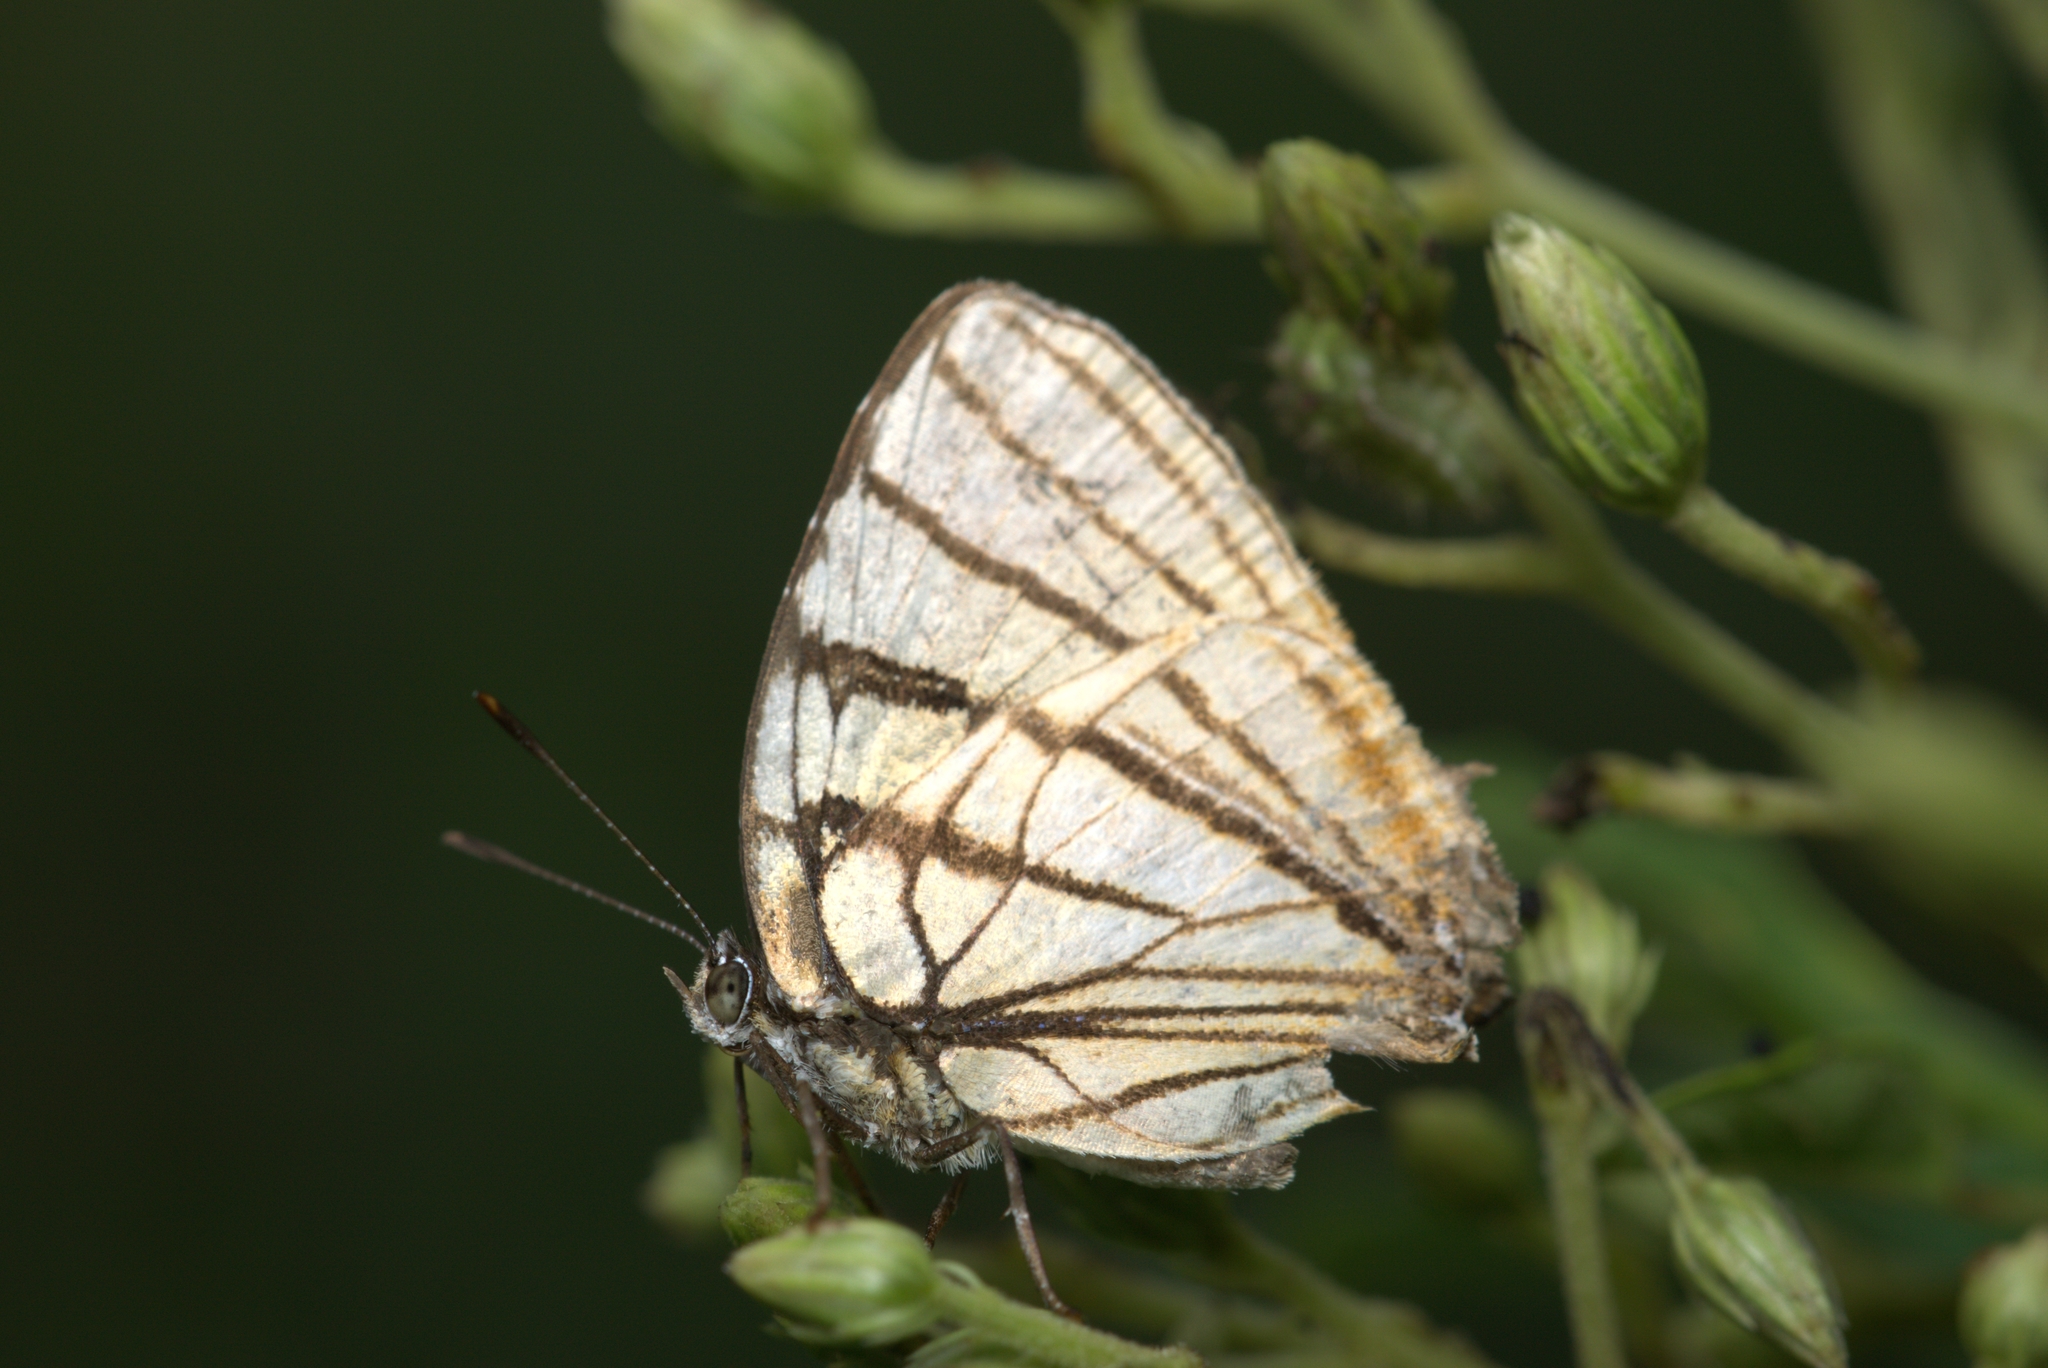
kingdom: Animalia
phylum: Arthropoda
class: Insecta
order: Lepidoptera
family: Lycaenidae
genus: Arawacus
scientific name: Arawacus melibaeus
